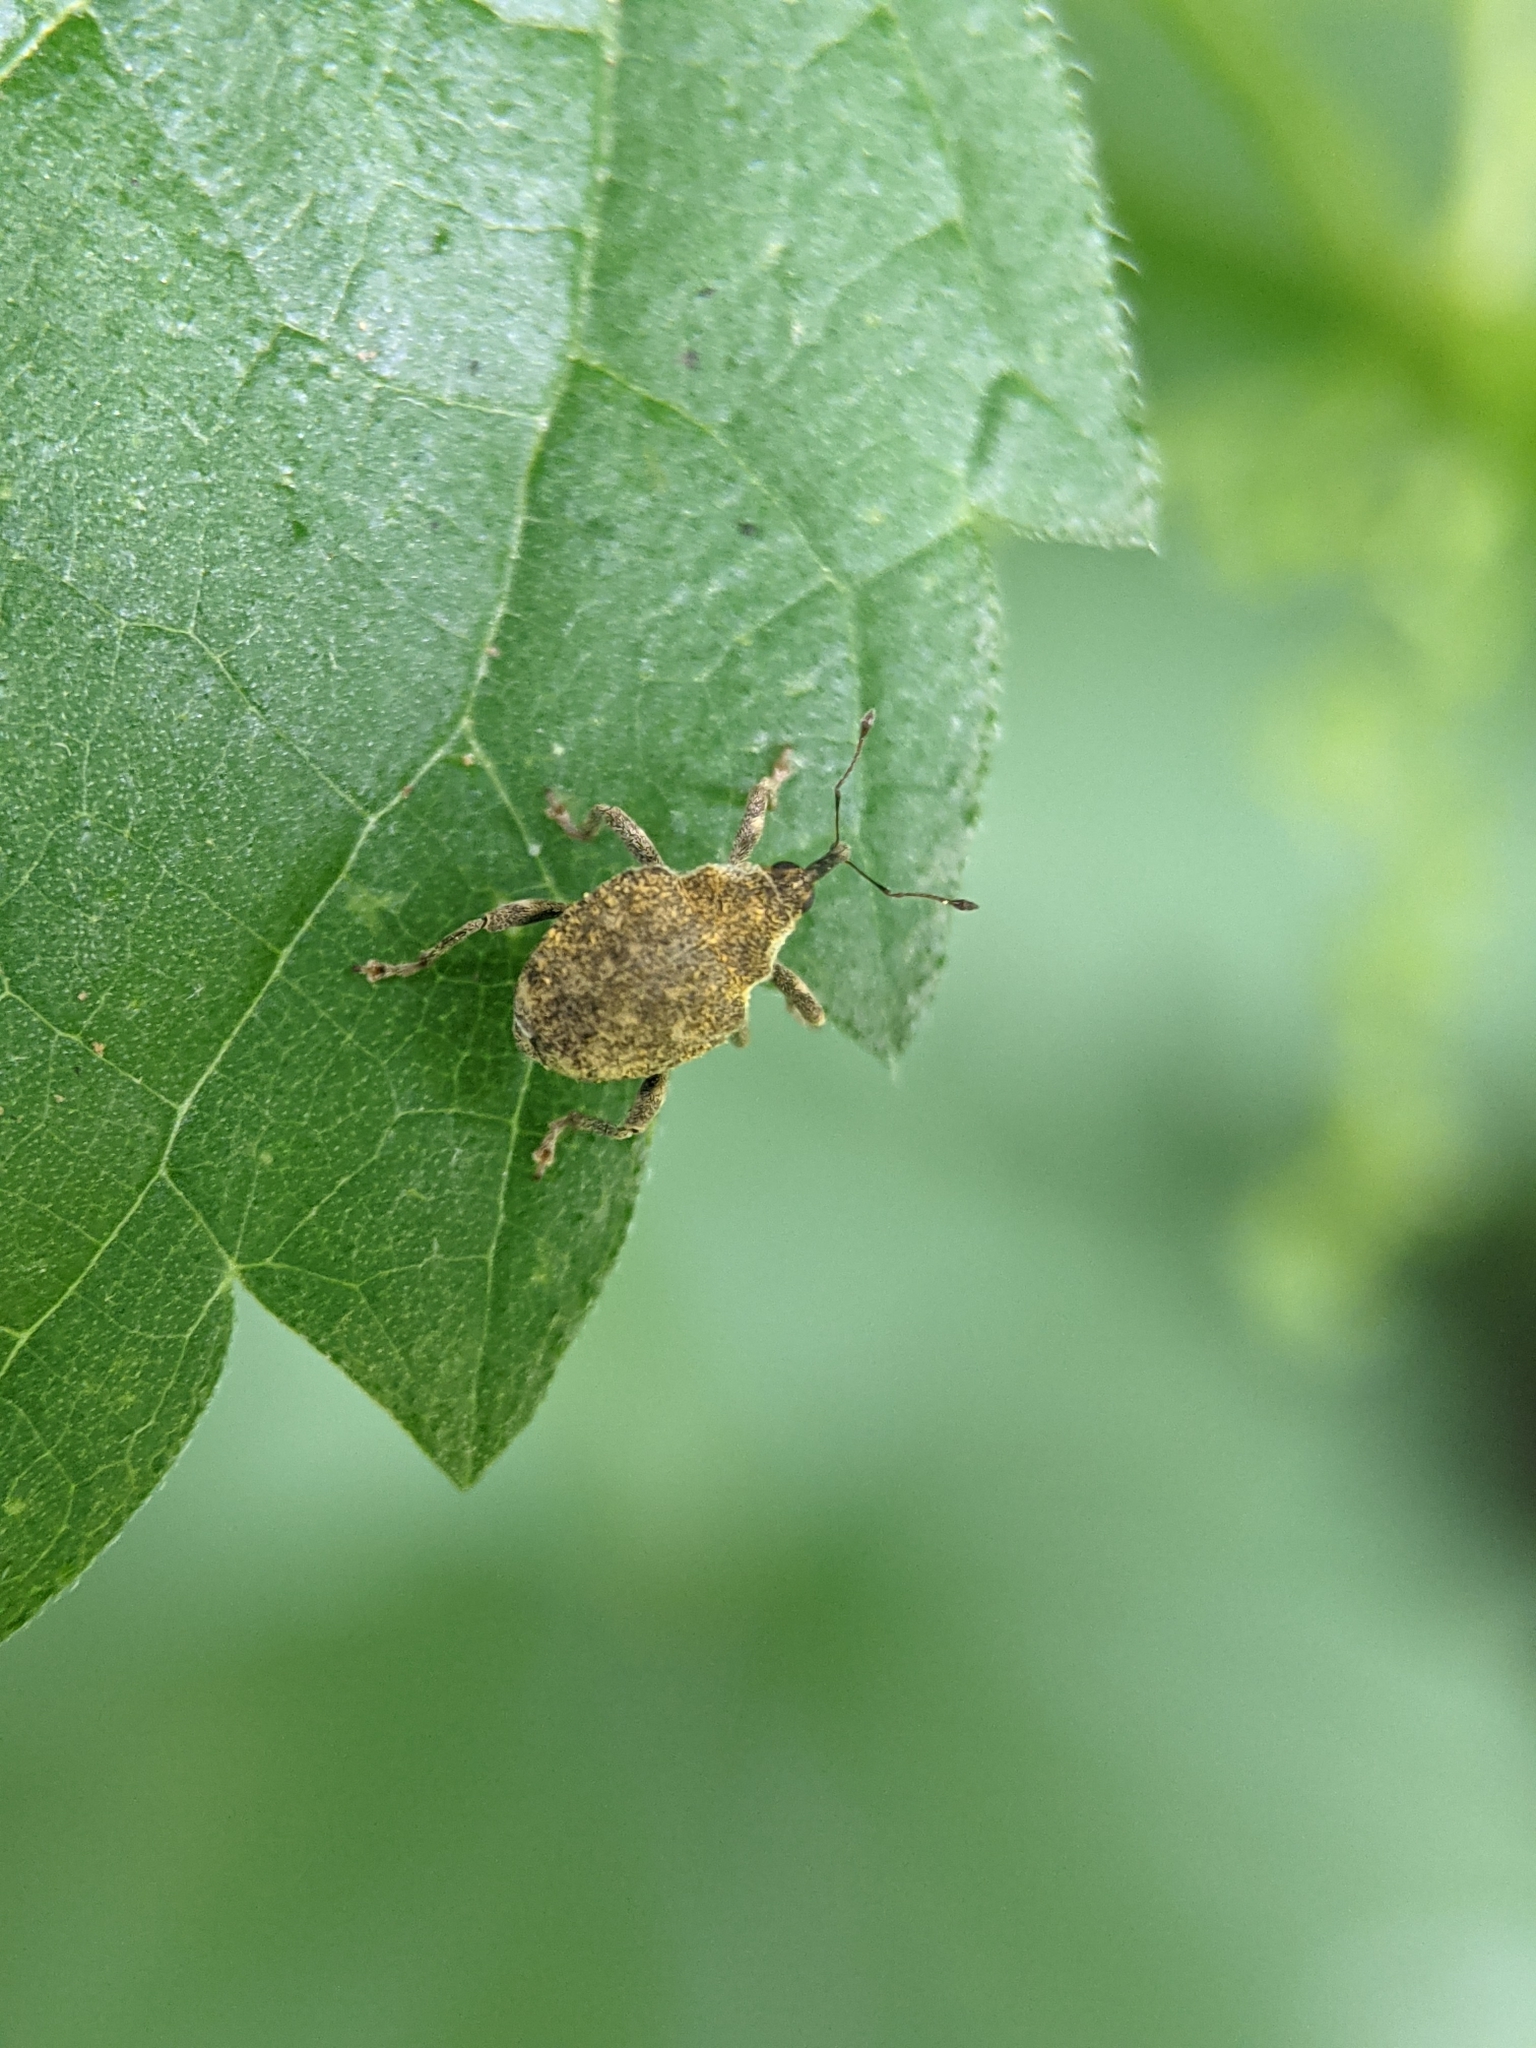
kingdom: Animalia
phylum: Arthropoda
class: Insecta
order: Coleoptera
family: Curculionidae
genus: Parethelcus
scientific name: Parethelcus pollinarius
